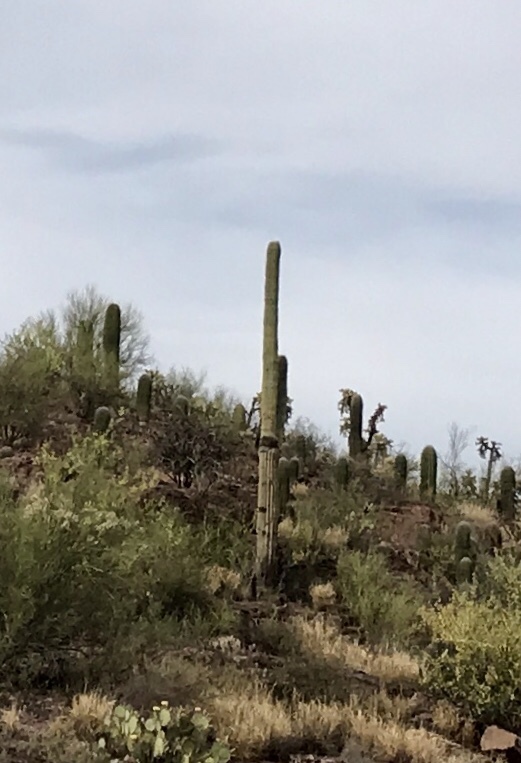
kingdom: Plantae
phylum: Tracheophyta
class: Magnoliopsida
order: Caryophyllales
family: Cactaceae
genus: Carnegiea
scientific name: Carnegiea gigantea
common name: Saguaro
